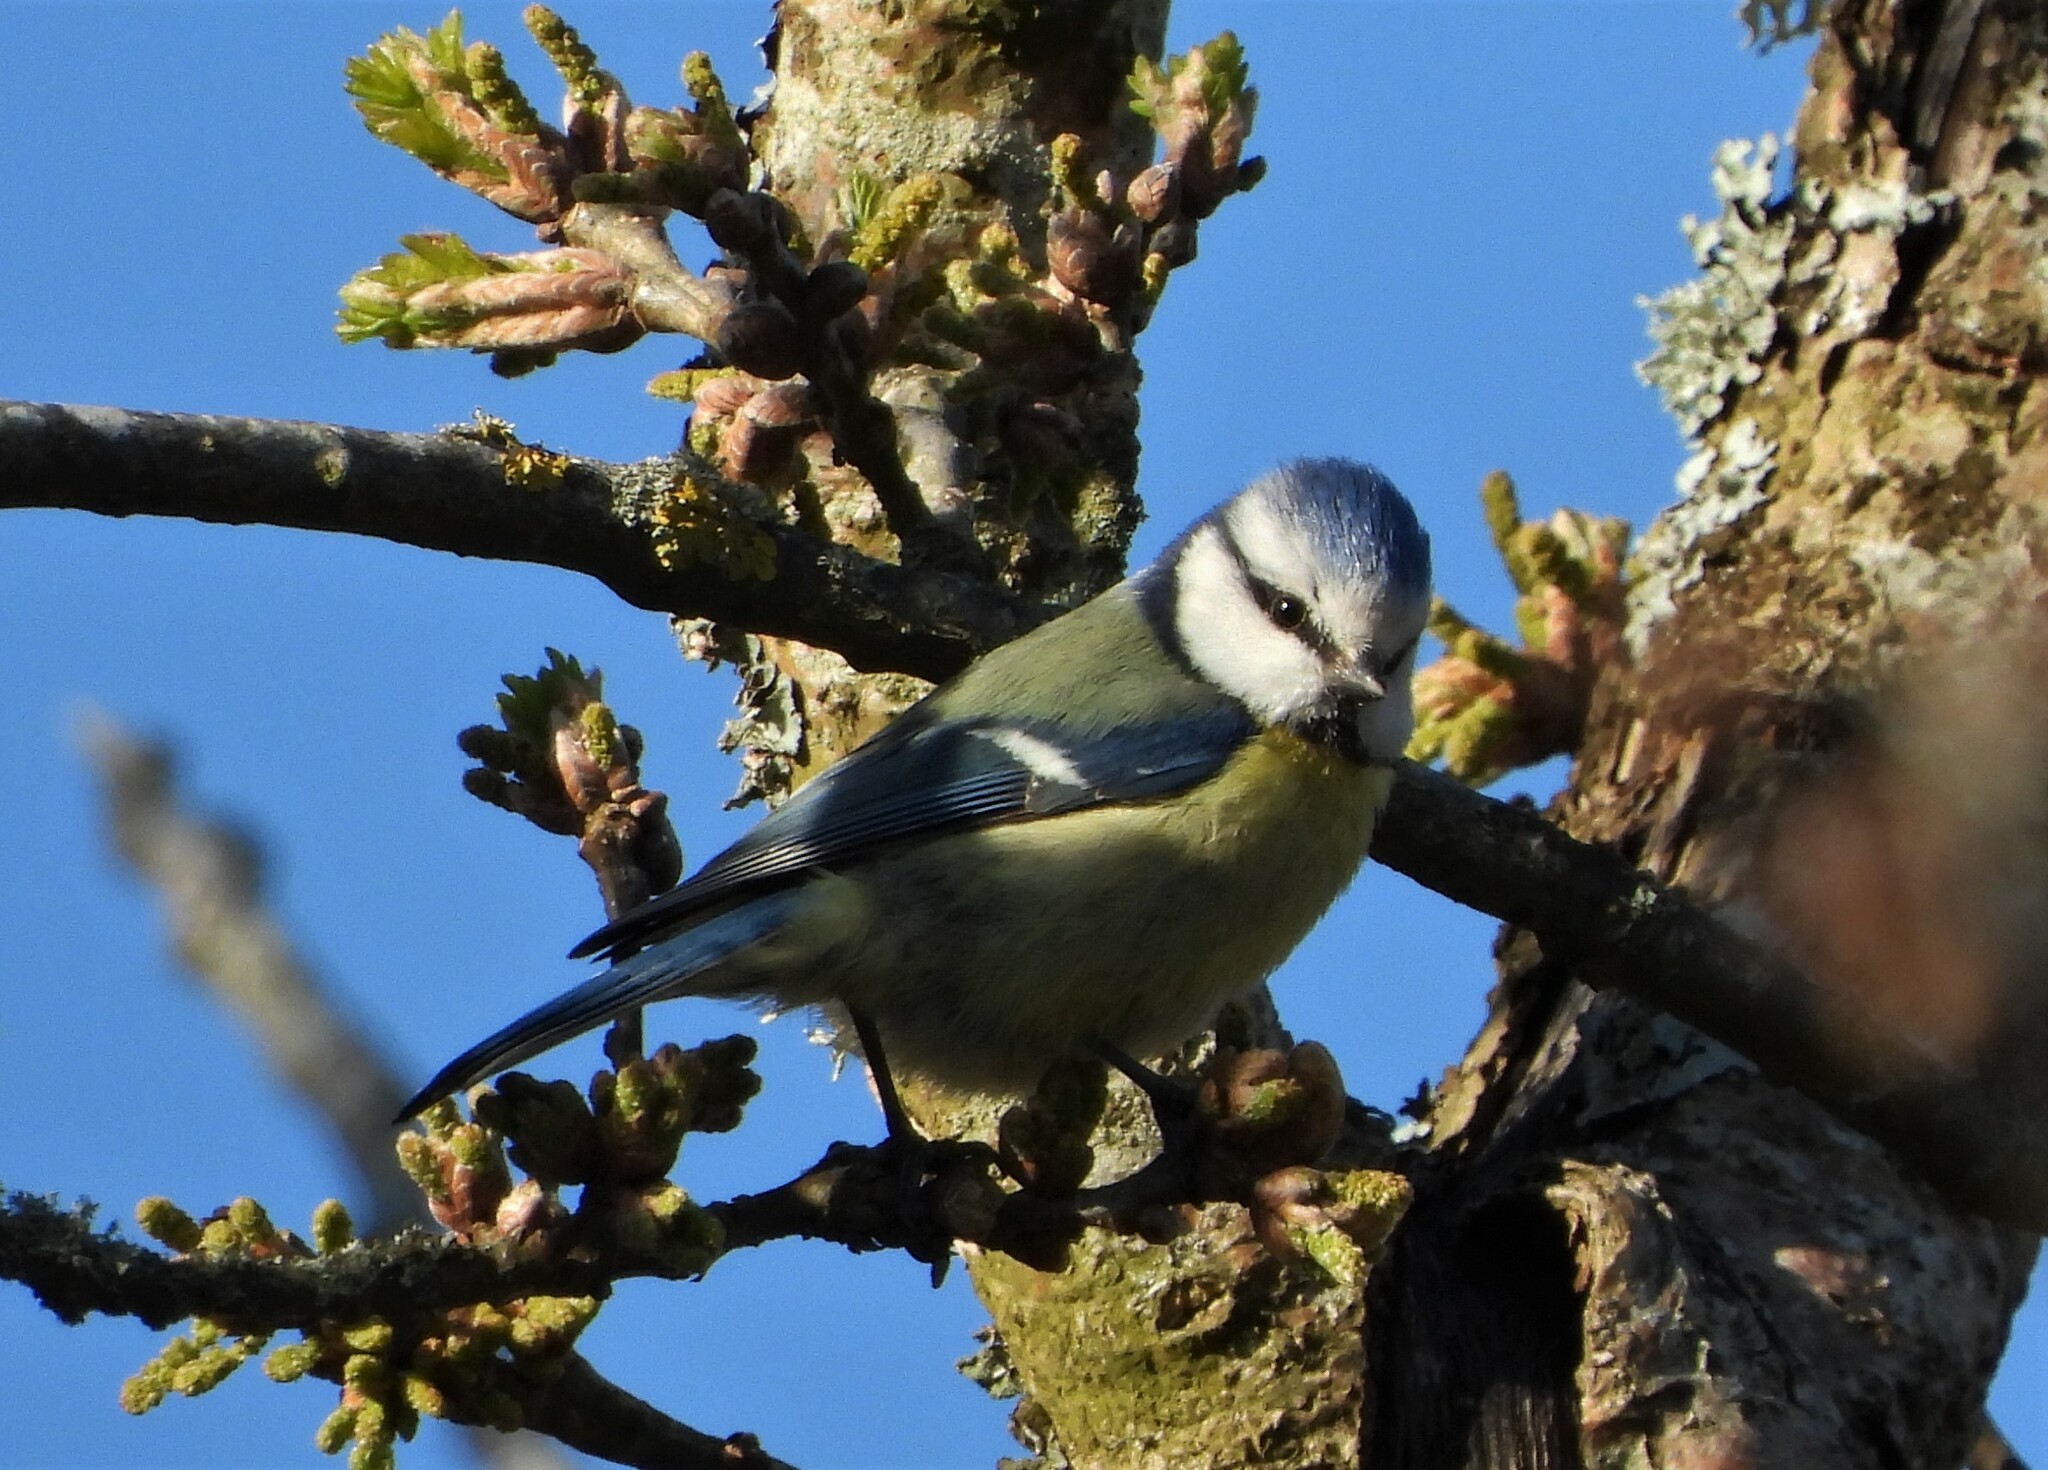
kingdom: Animalia
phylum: Chordata
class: Aves
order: Passeriformes
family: Paridae
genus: Cyanistes
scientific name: Cyanistes caeruleus
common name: Eurasian blue tit
